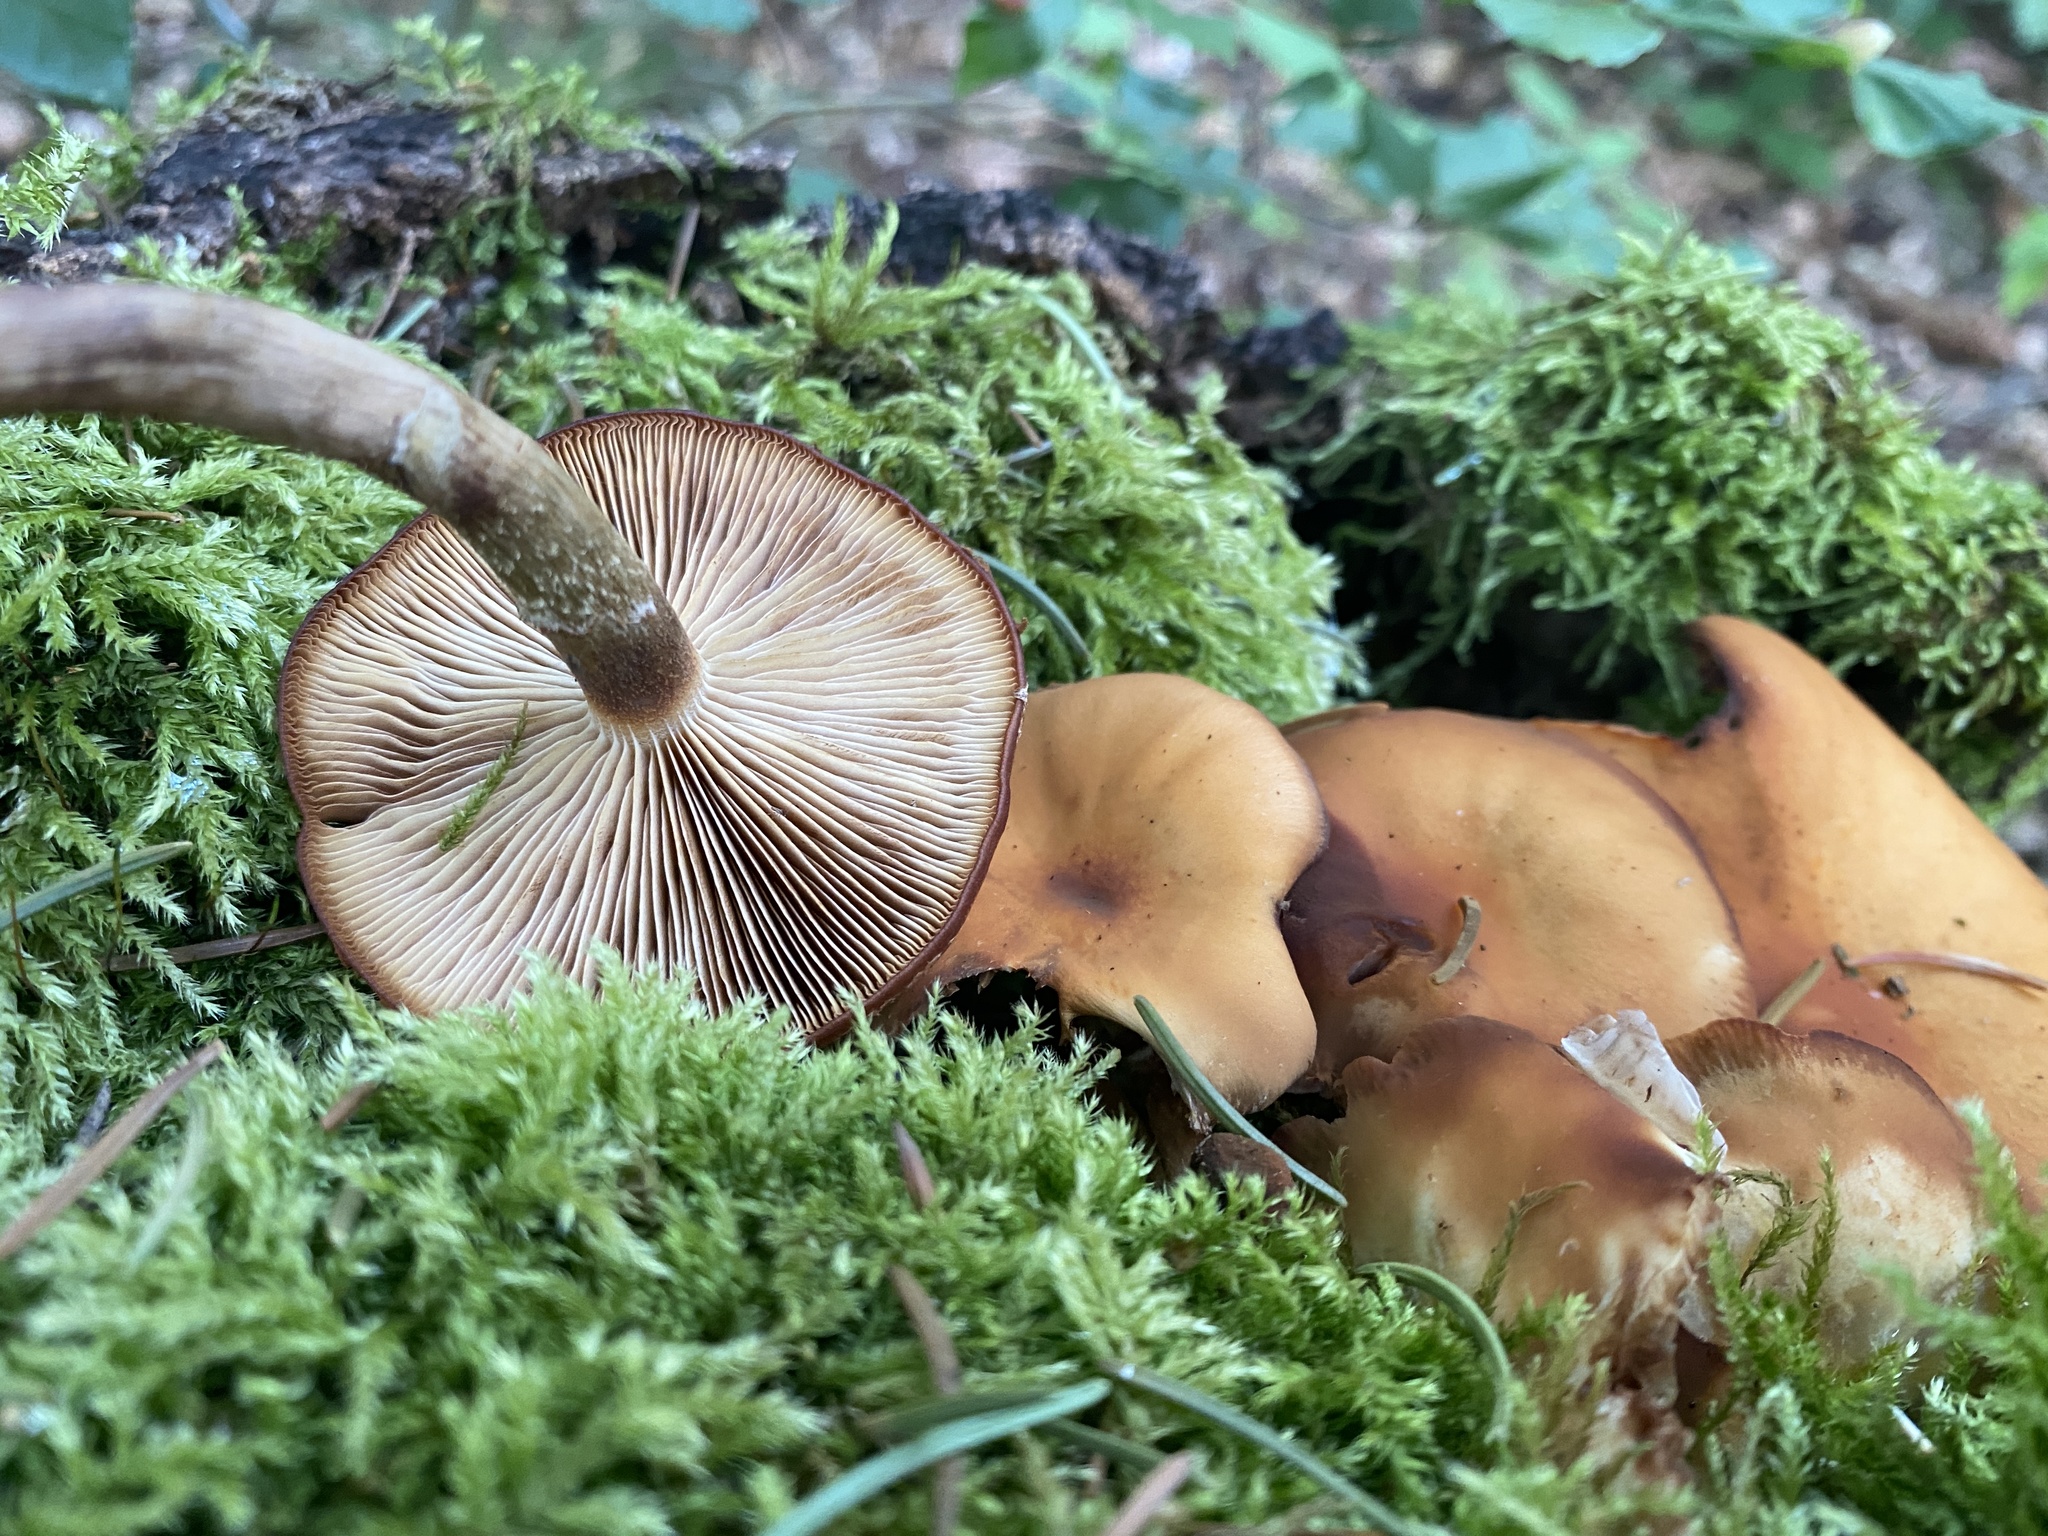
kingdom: Fungi
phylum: Basidiomycota
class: Agaricomycetes
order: Agaricales
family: Strophariaceae
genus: Kuehneromyces
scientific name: Kuehneromyces mutabilis
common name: Sheathed woodtuft
